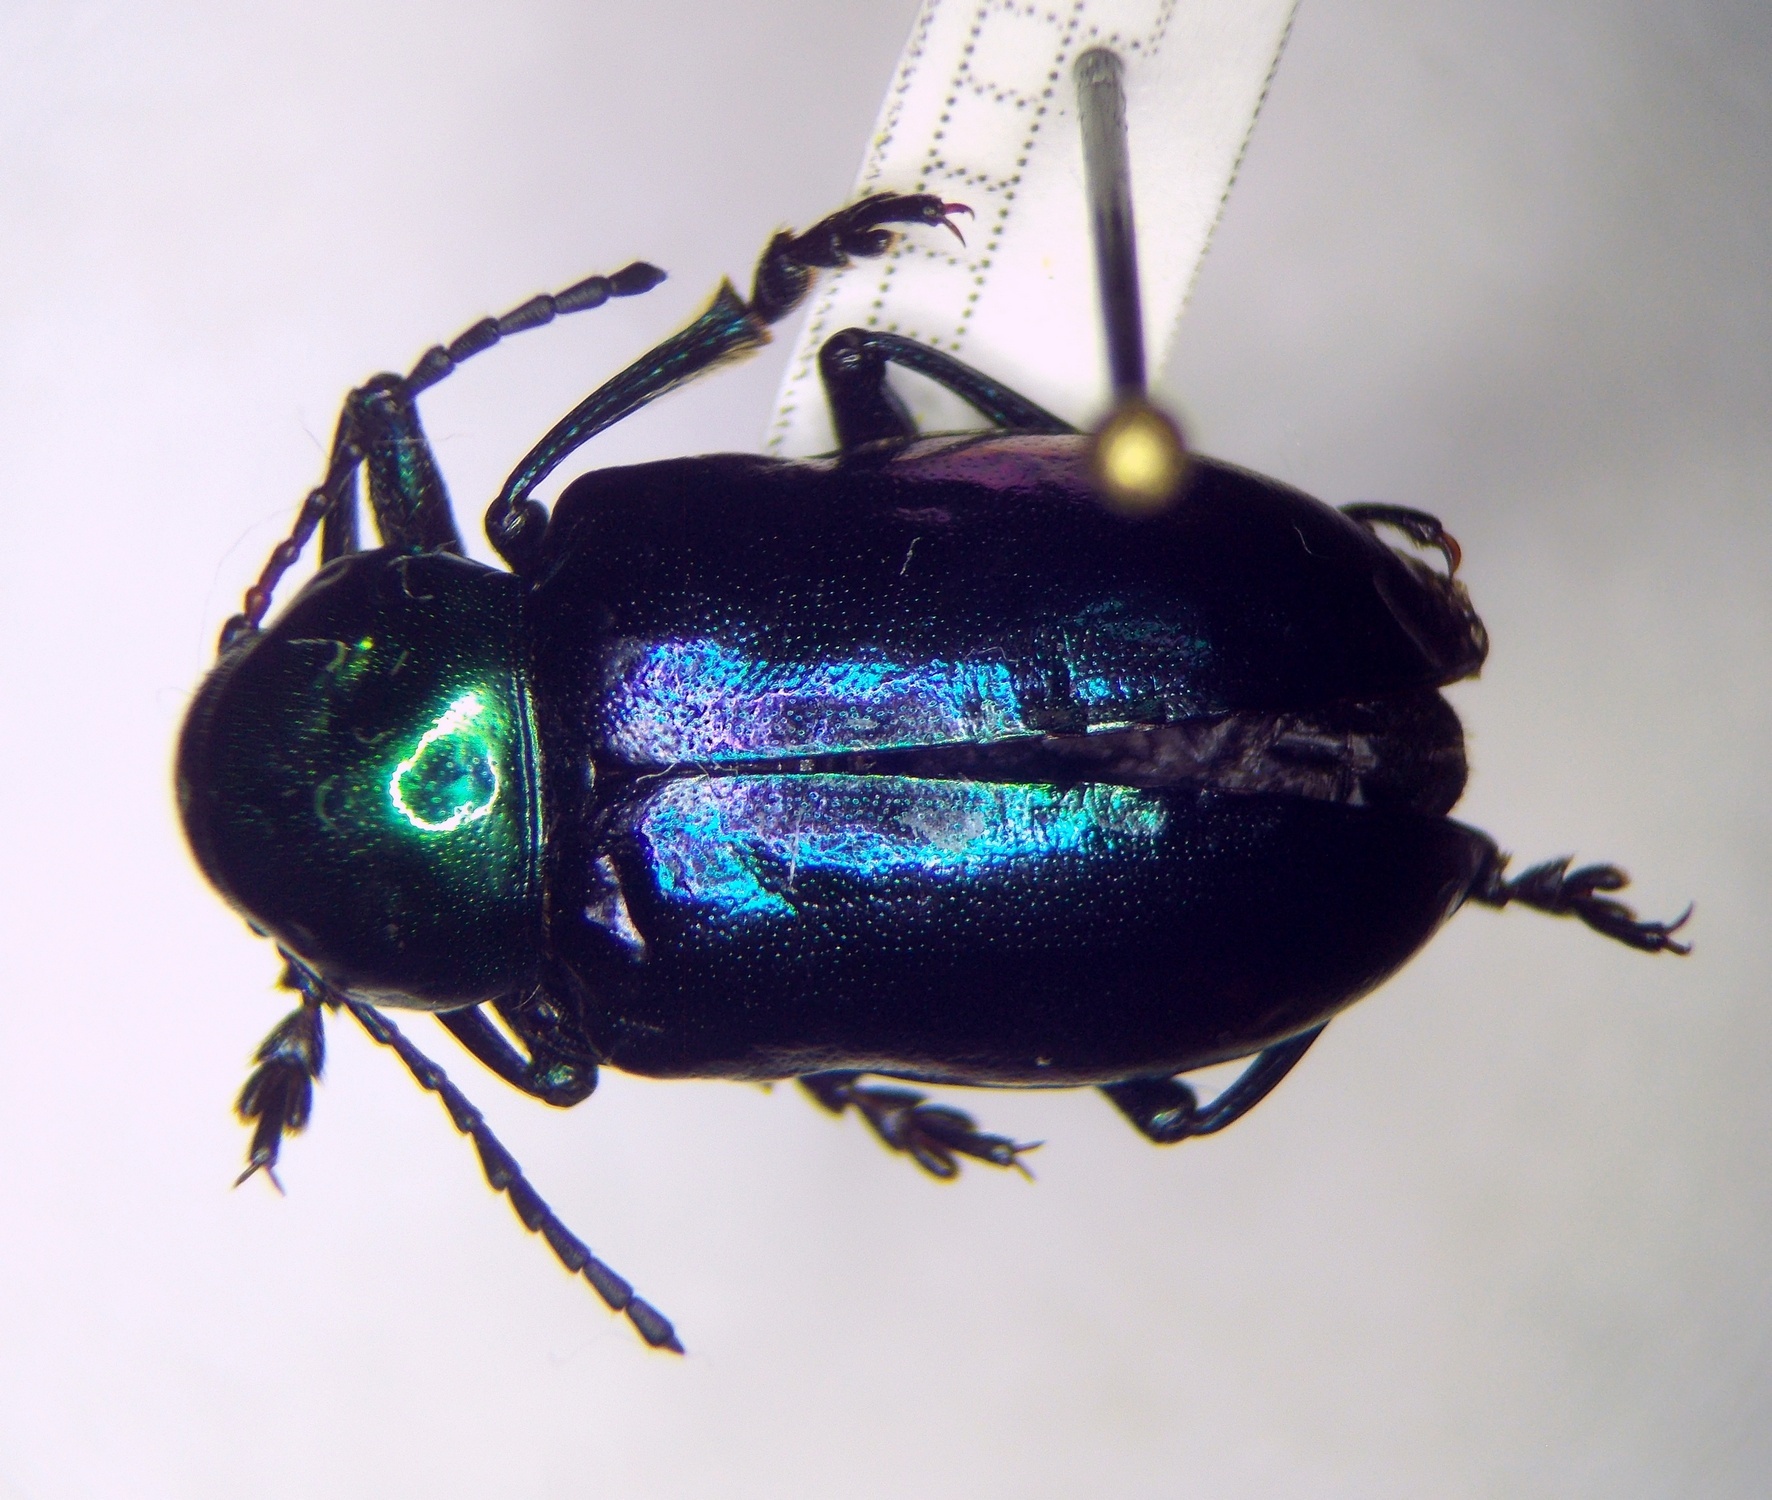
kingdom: Animalia
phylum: Arthropoda
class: Insecta
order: Coleoptera
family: Chrysomelidae
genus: Chrysochares
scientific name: Chrysochares
